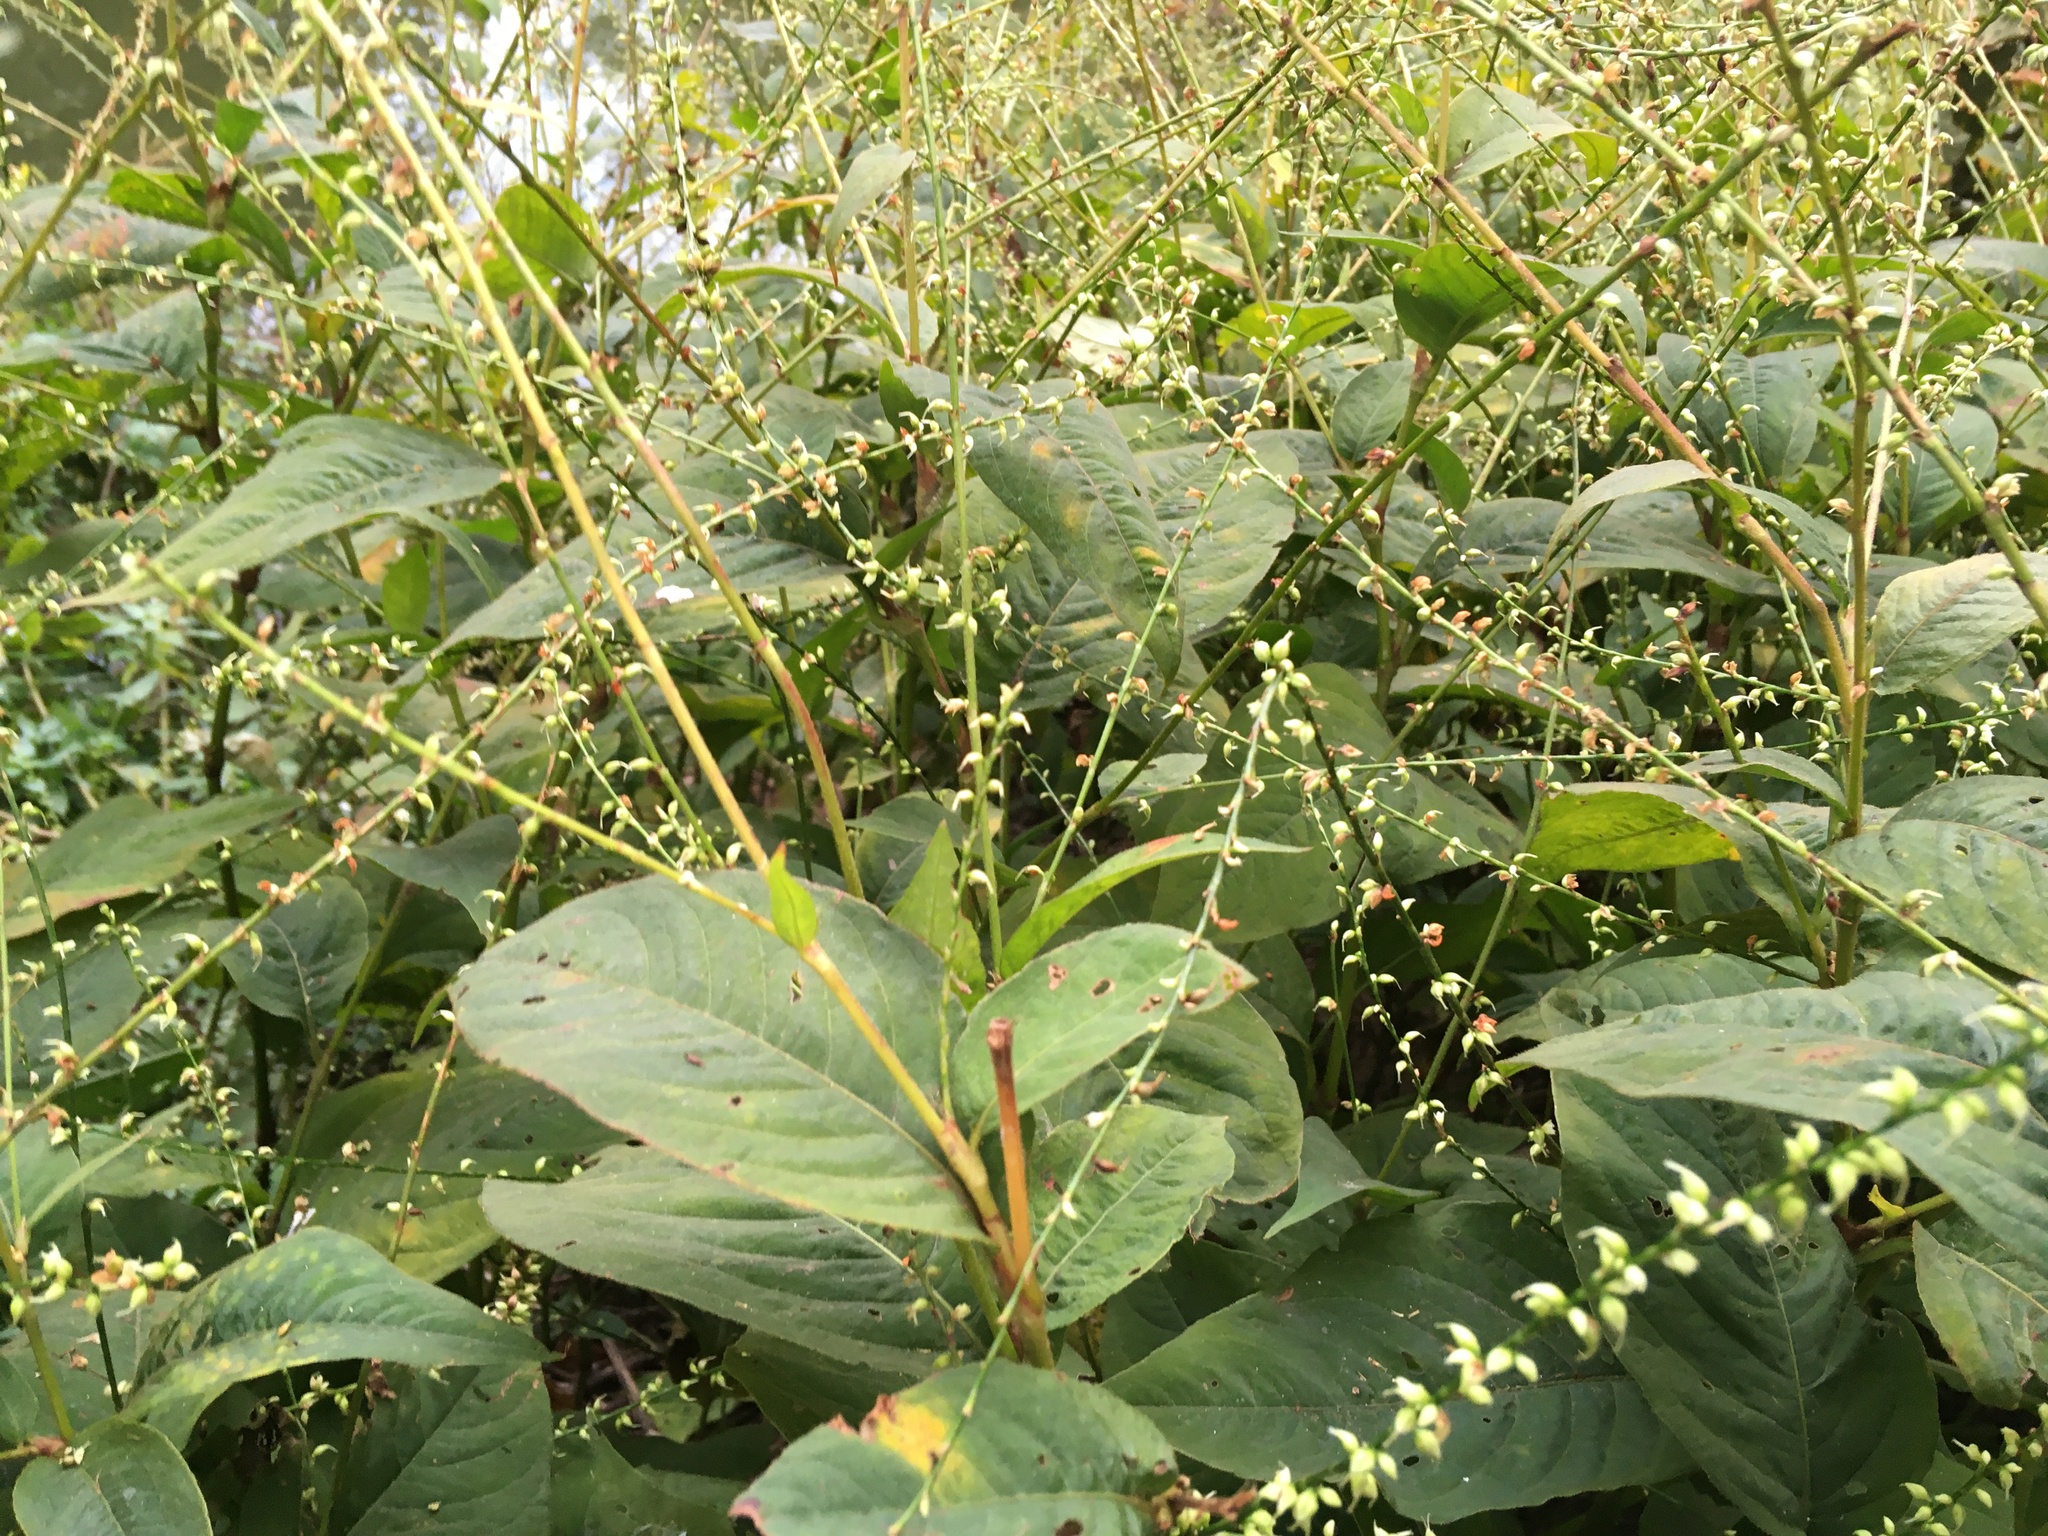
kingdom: Plantae
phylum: Tracheophyta
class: Magnoliopsida
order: Caryophyllales
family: Polygonaceae
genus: Persicaria
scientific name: Persicaria virginiana
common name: Jumpseed
